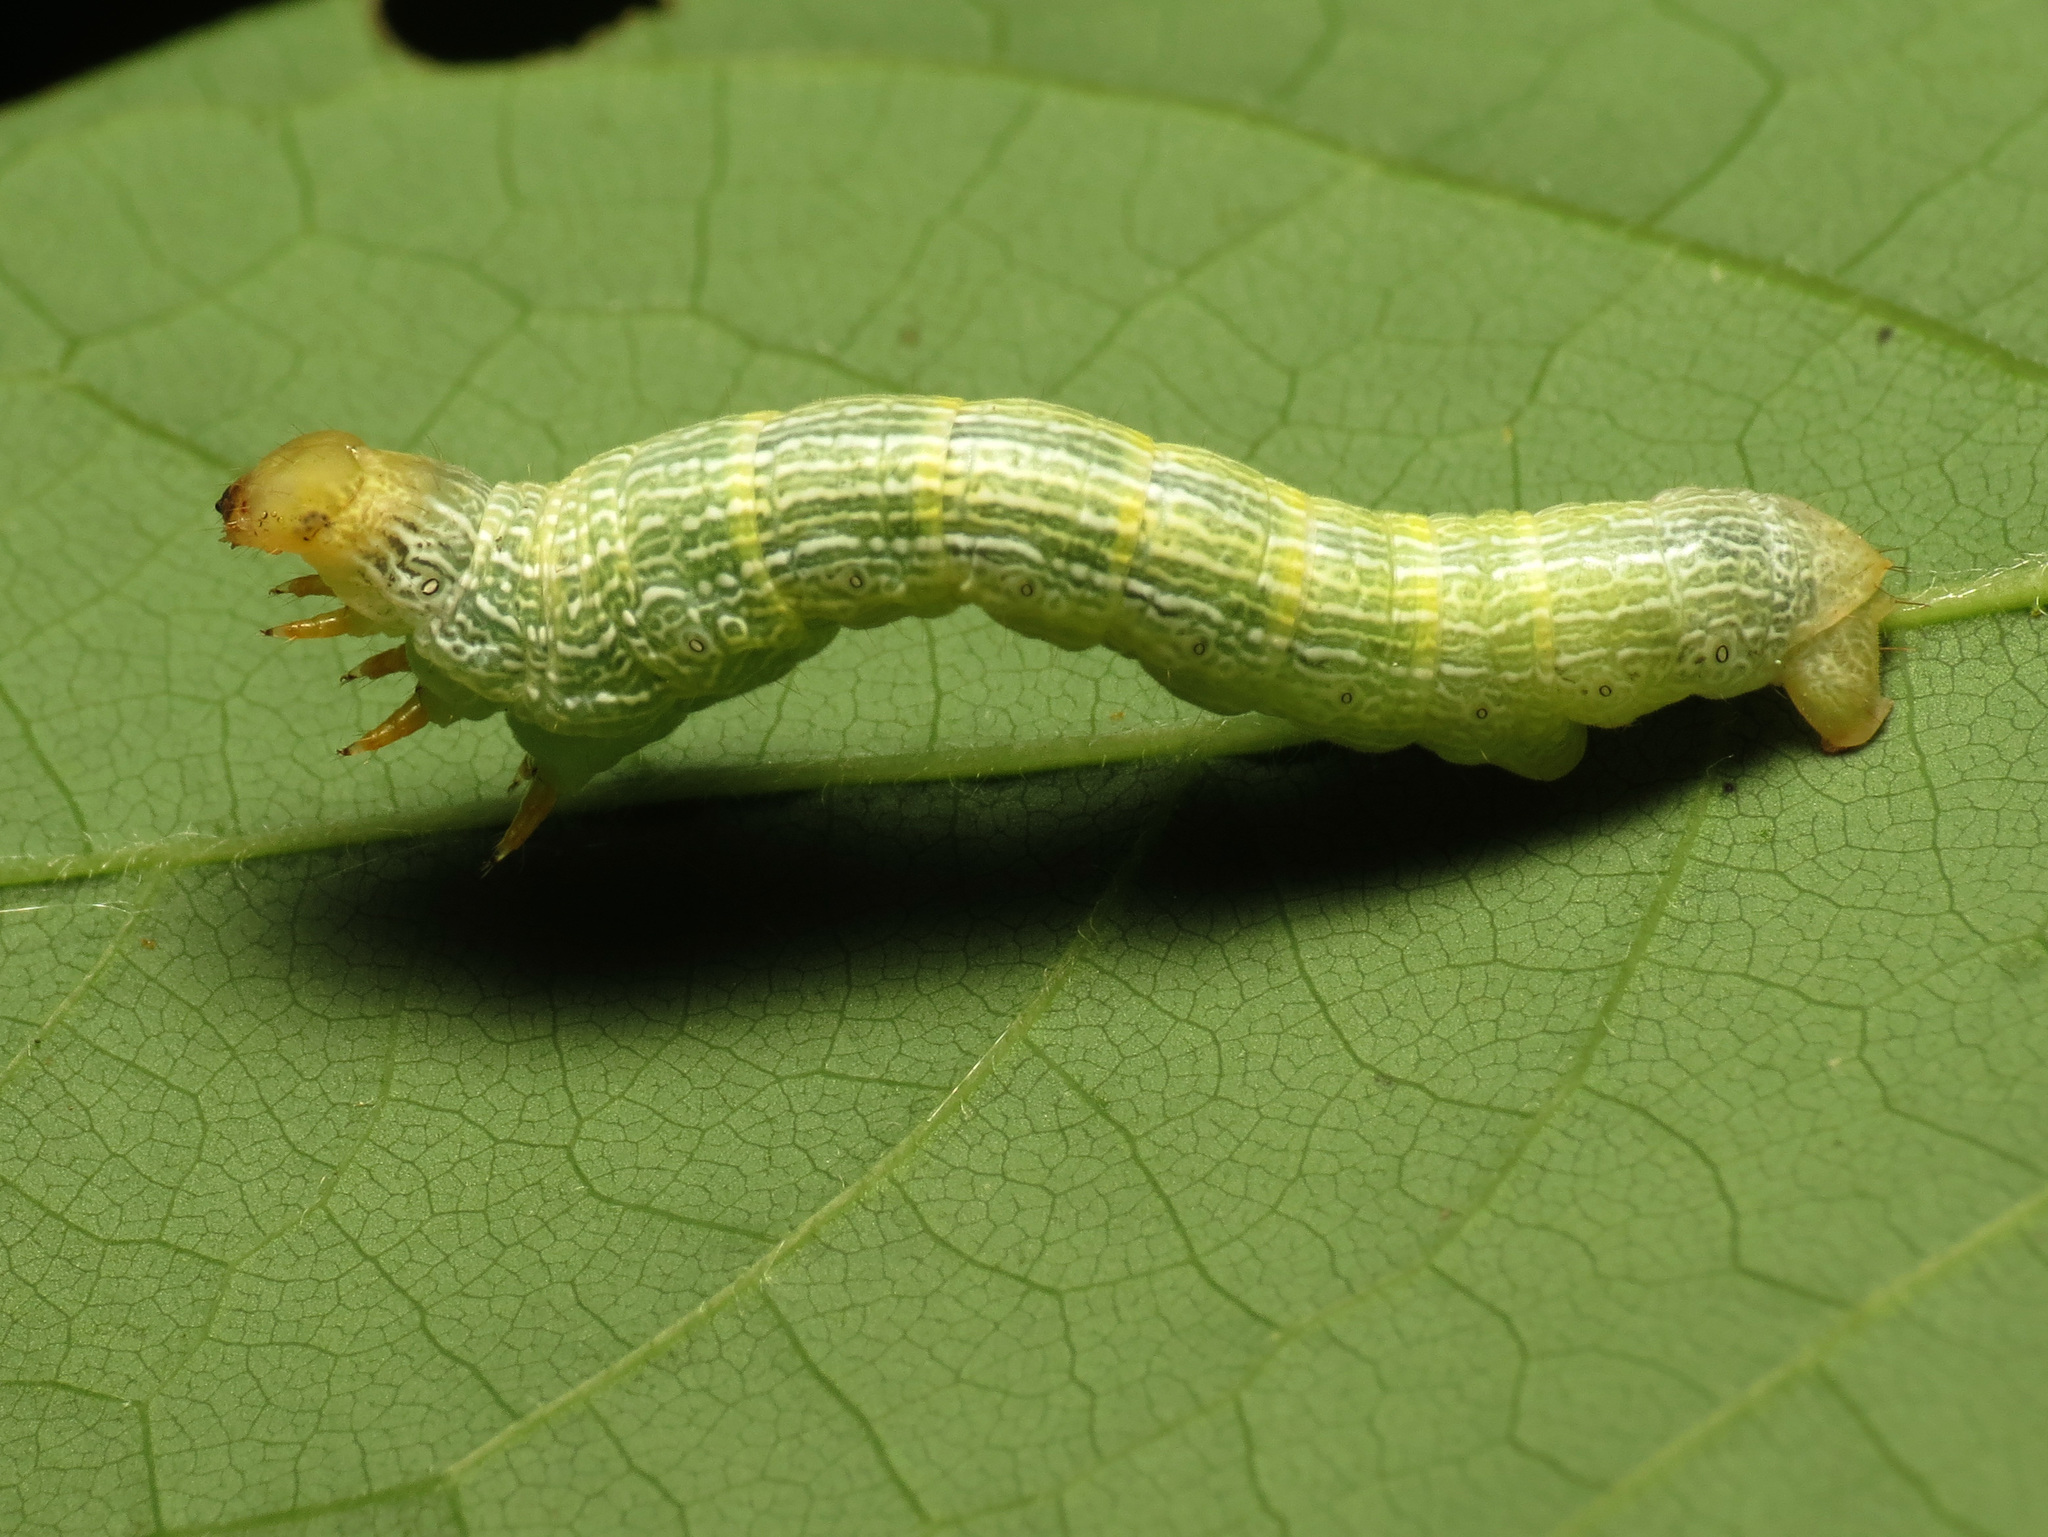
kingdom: Animalia
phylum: Arthropoda
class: Insecta
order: Lepidoptera
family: Geometridae
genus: Epimecis
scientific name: Epimecis hortaria
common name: Tulip-tree beauty
